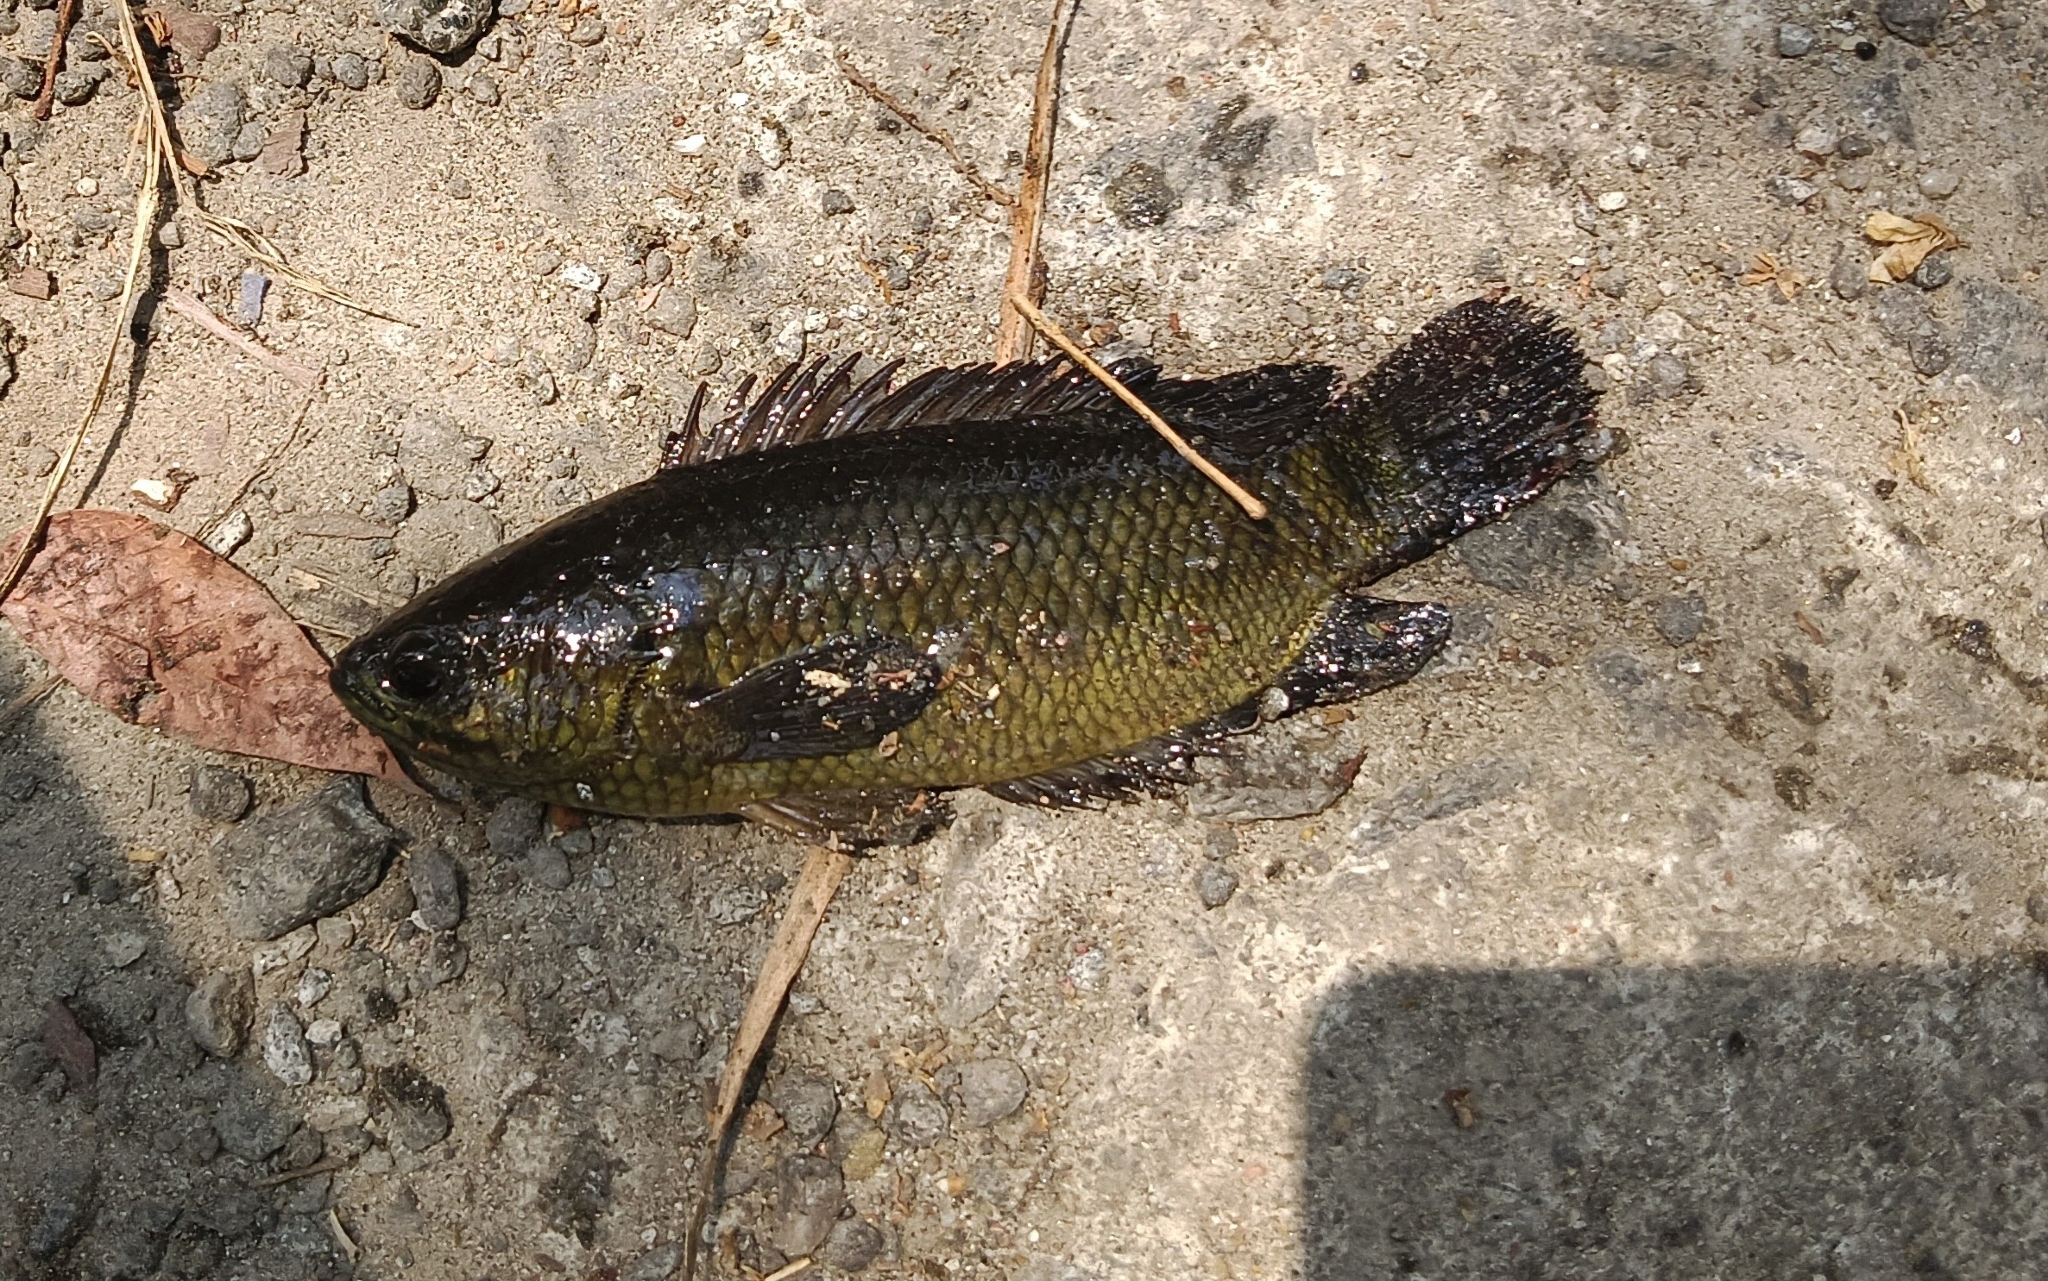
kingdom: Animalia
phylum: Chordata
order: Perciformes
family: Anabantidae
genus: Anabas
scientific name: Anabas testudineus
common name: Climbing perch
